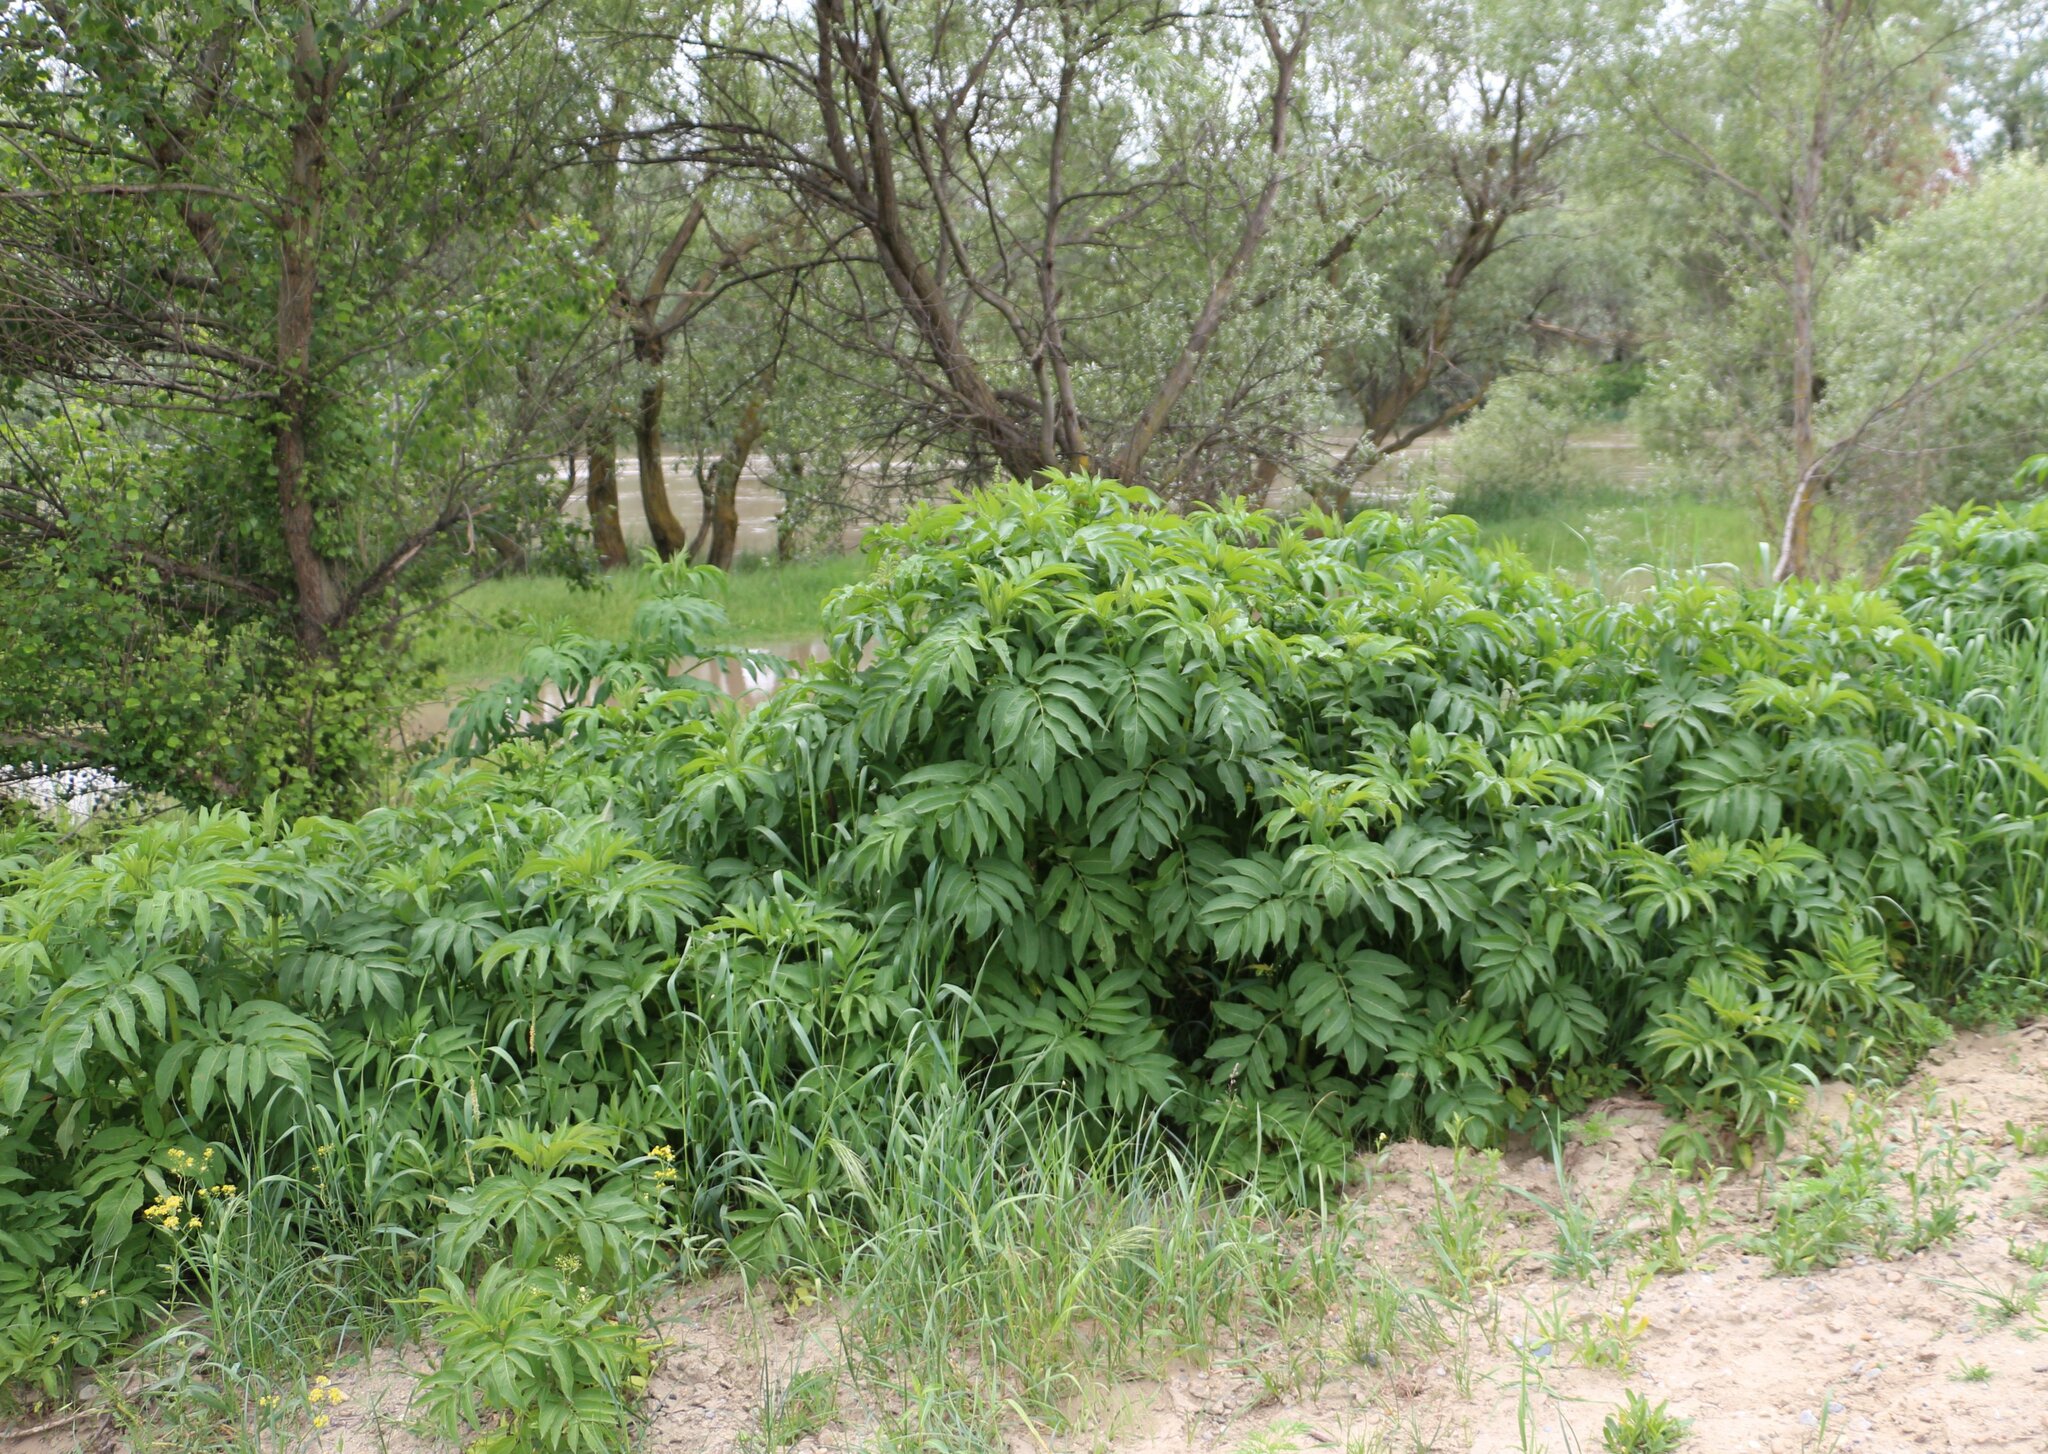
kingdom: Plantae
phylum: Tracheophyta
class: Magnoliopsida
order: Dipsacales
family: Viburnaceae
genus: Sambucus
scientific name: Sambucus ebulus
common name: Dwarf elder
